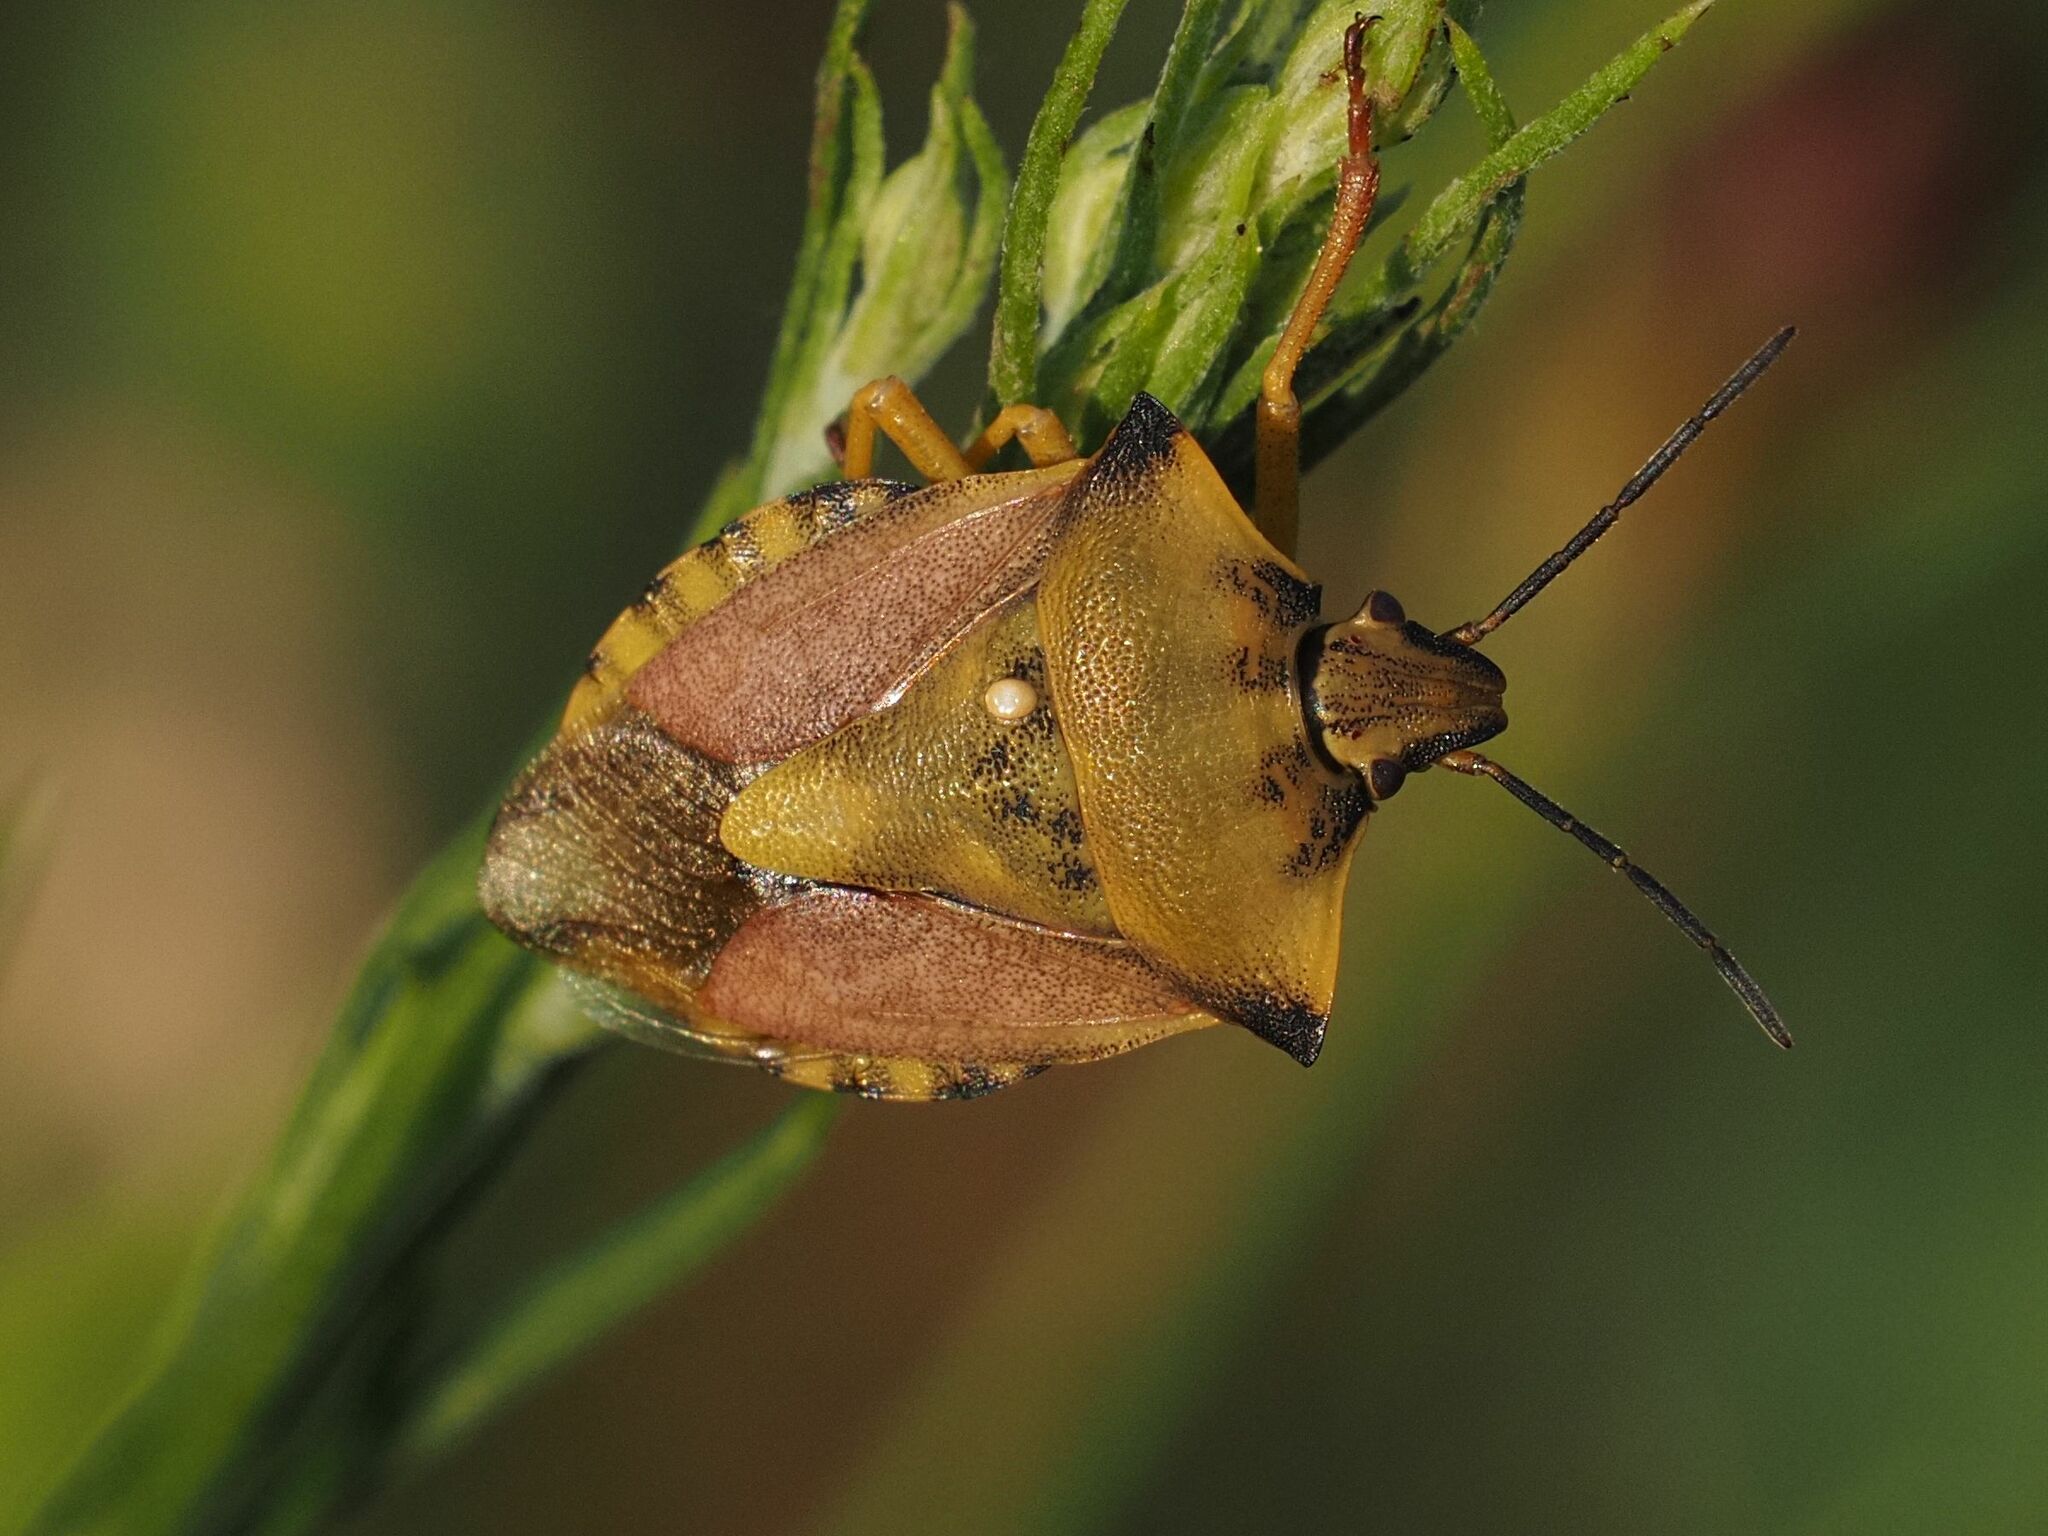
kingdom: Animalia
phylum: Arthropoda
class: Insecta
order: Hemiptera
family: Pentatomidae
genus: Carpocoris
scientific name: Carpocoris fuscispinus
